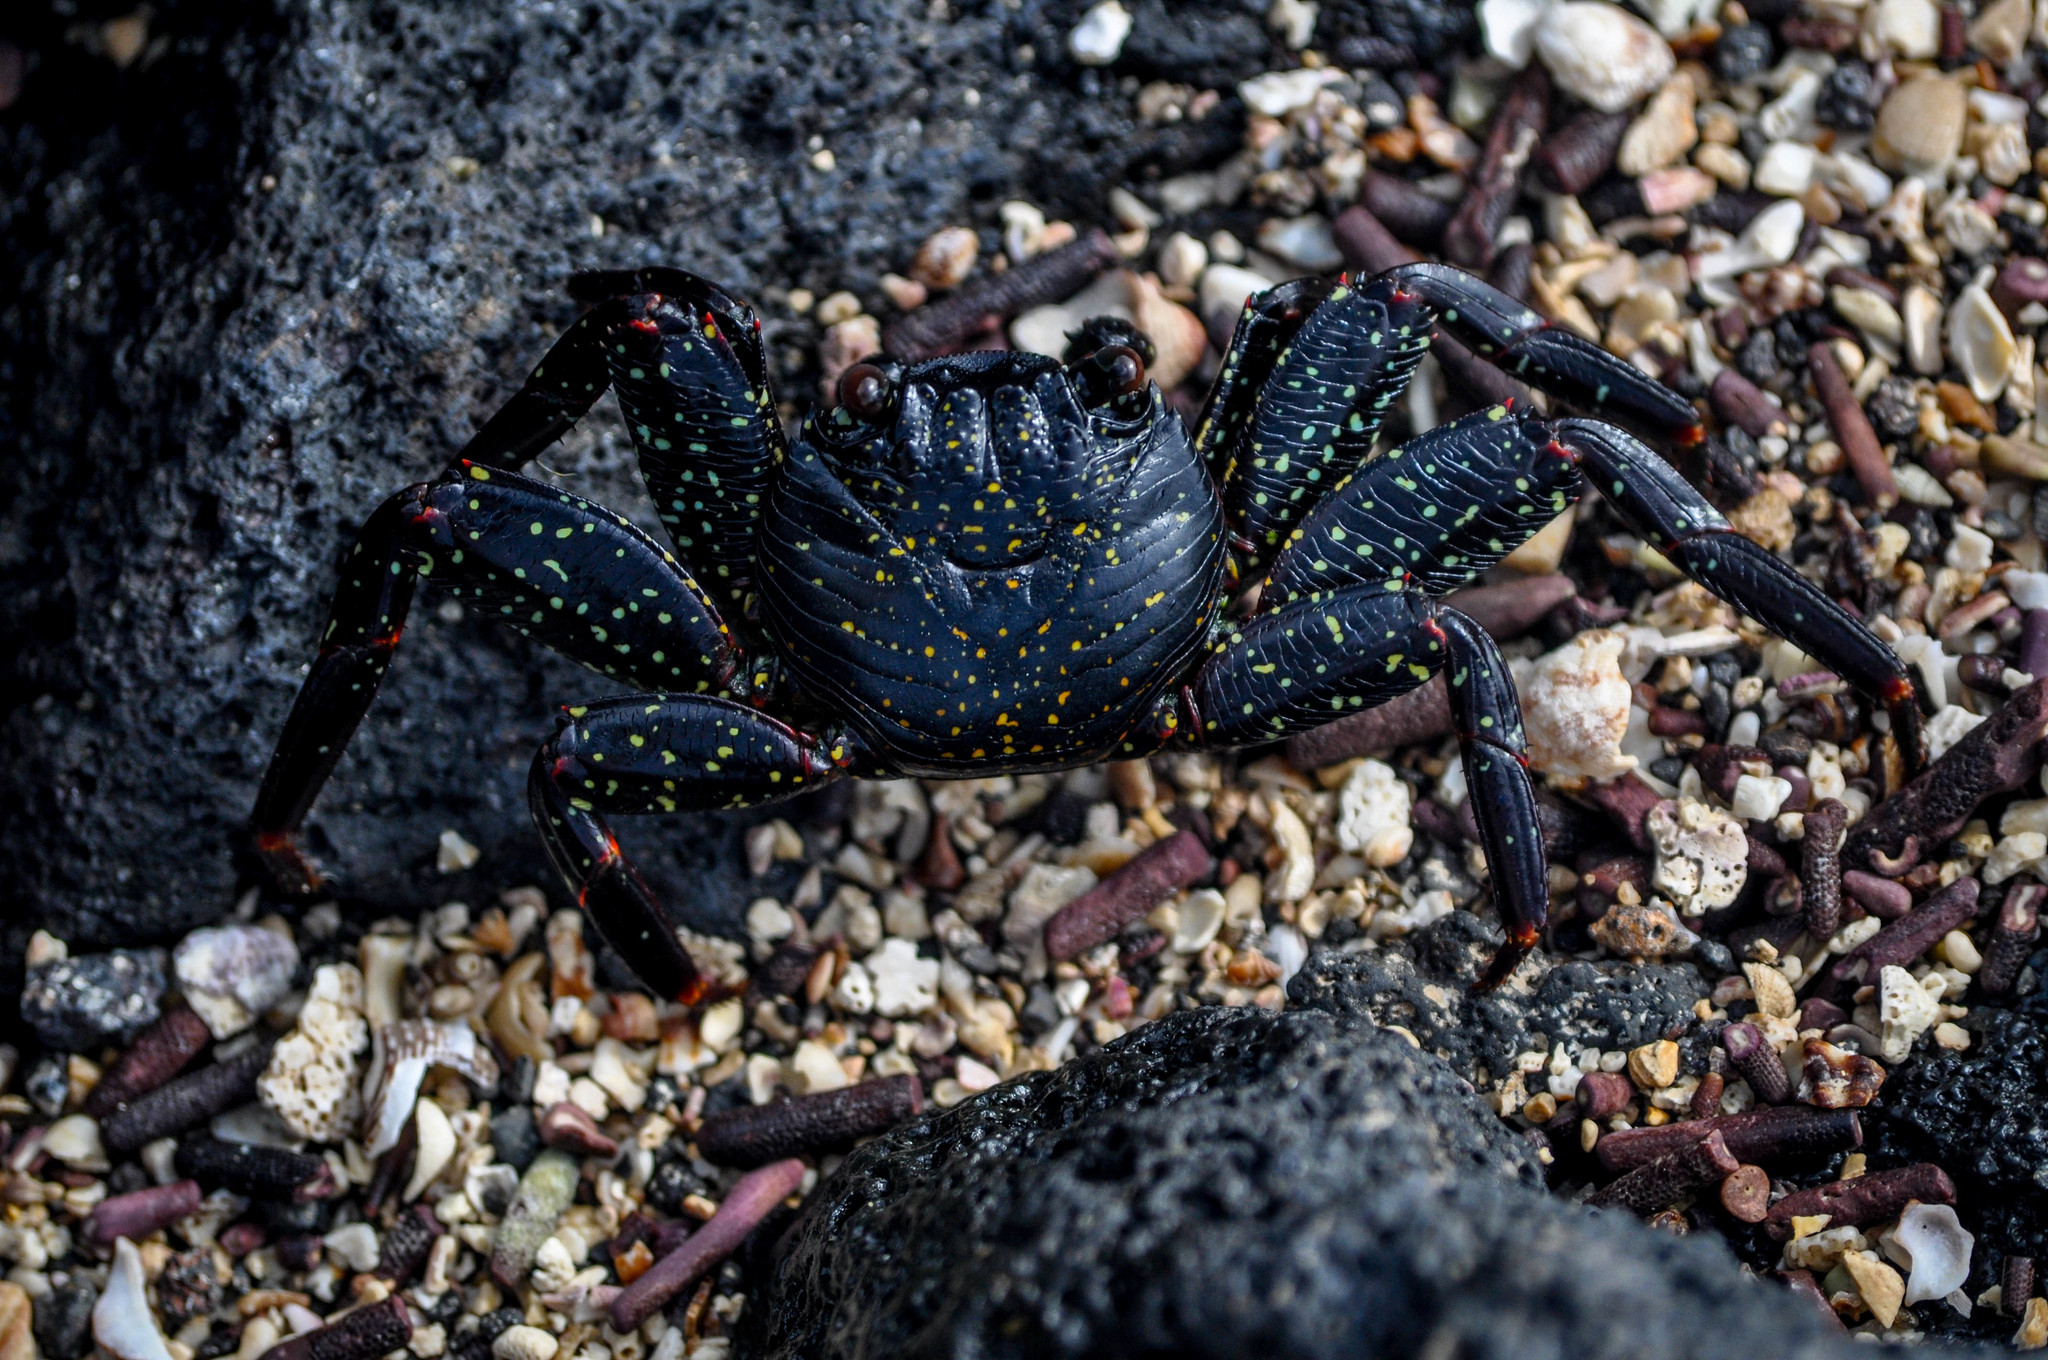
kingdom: Animalia
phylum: Arthropoda
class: Malacostraca
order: Decapoda
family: Grapsidae
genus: Grapsus
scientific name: Grapsus grapsus
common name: Sally lightfoot
